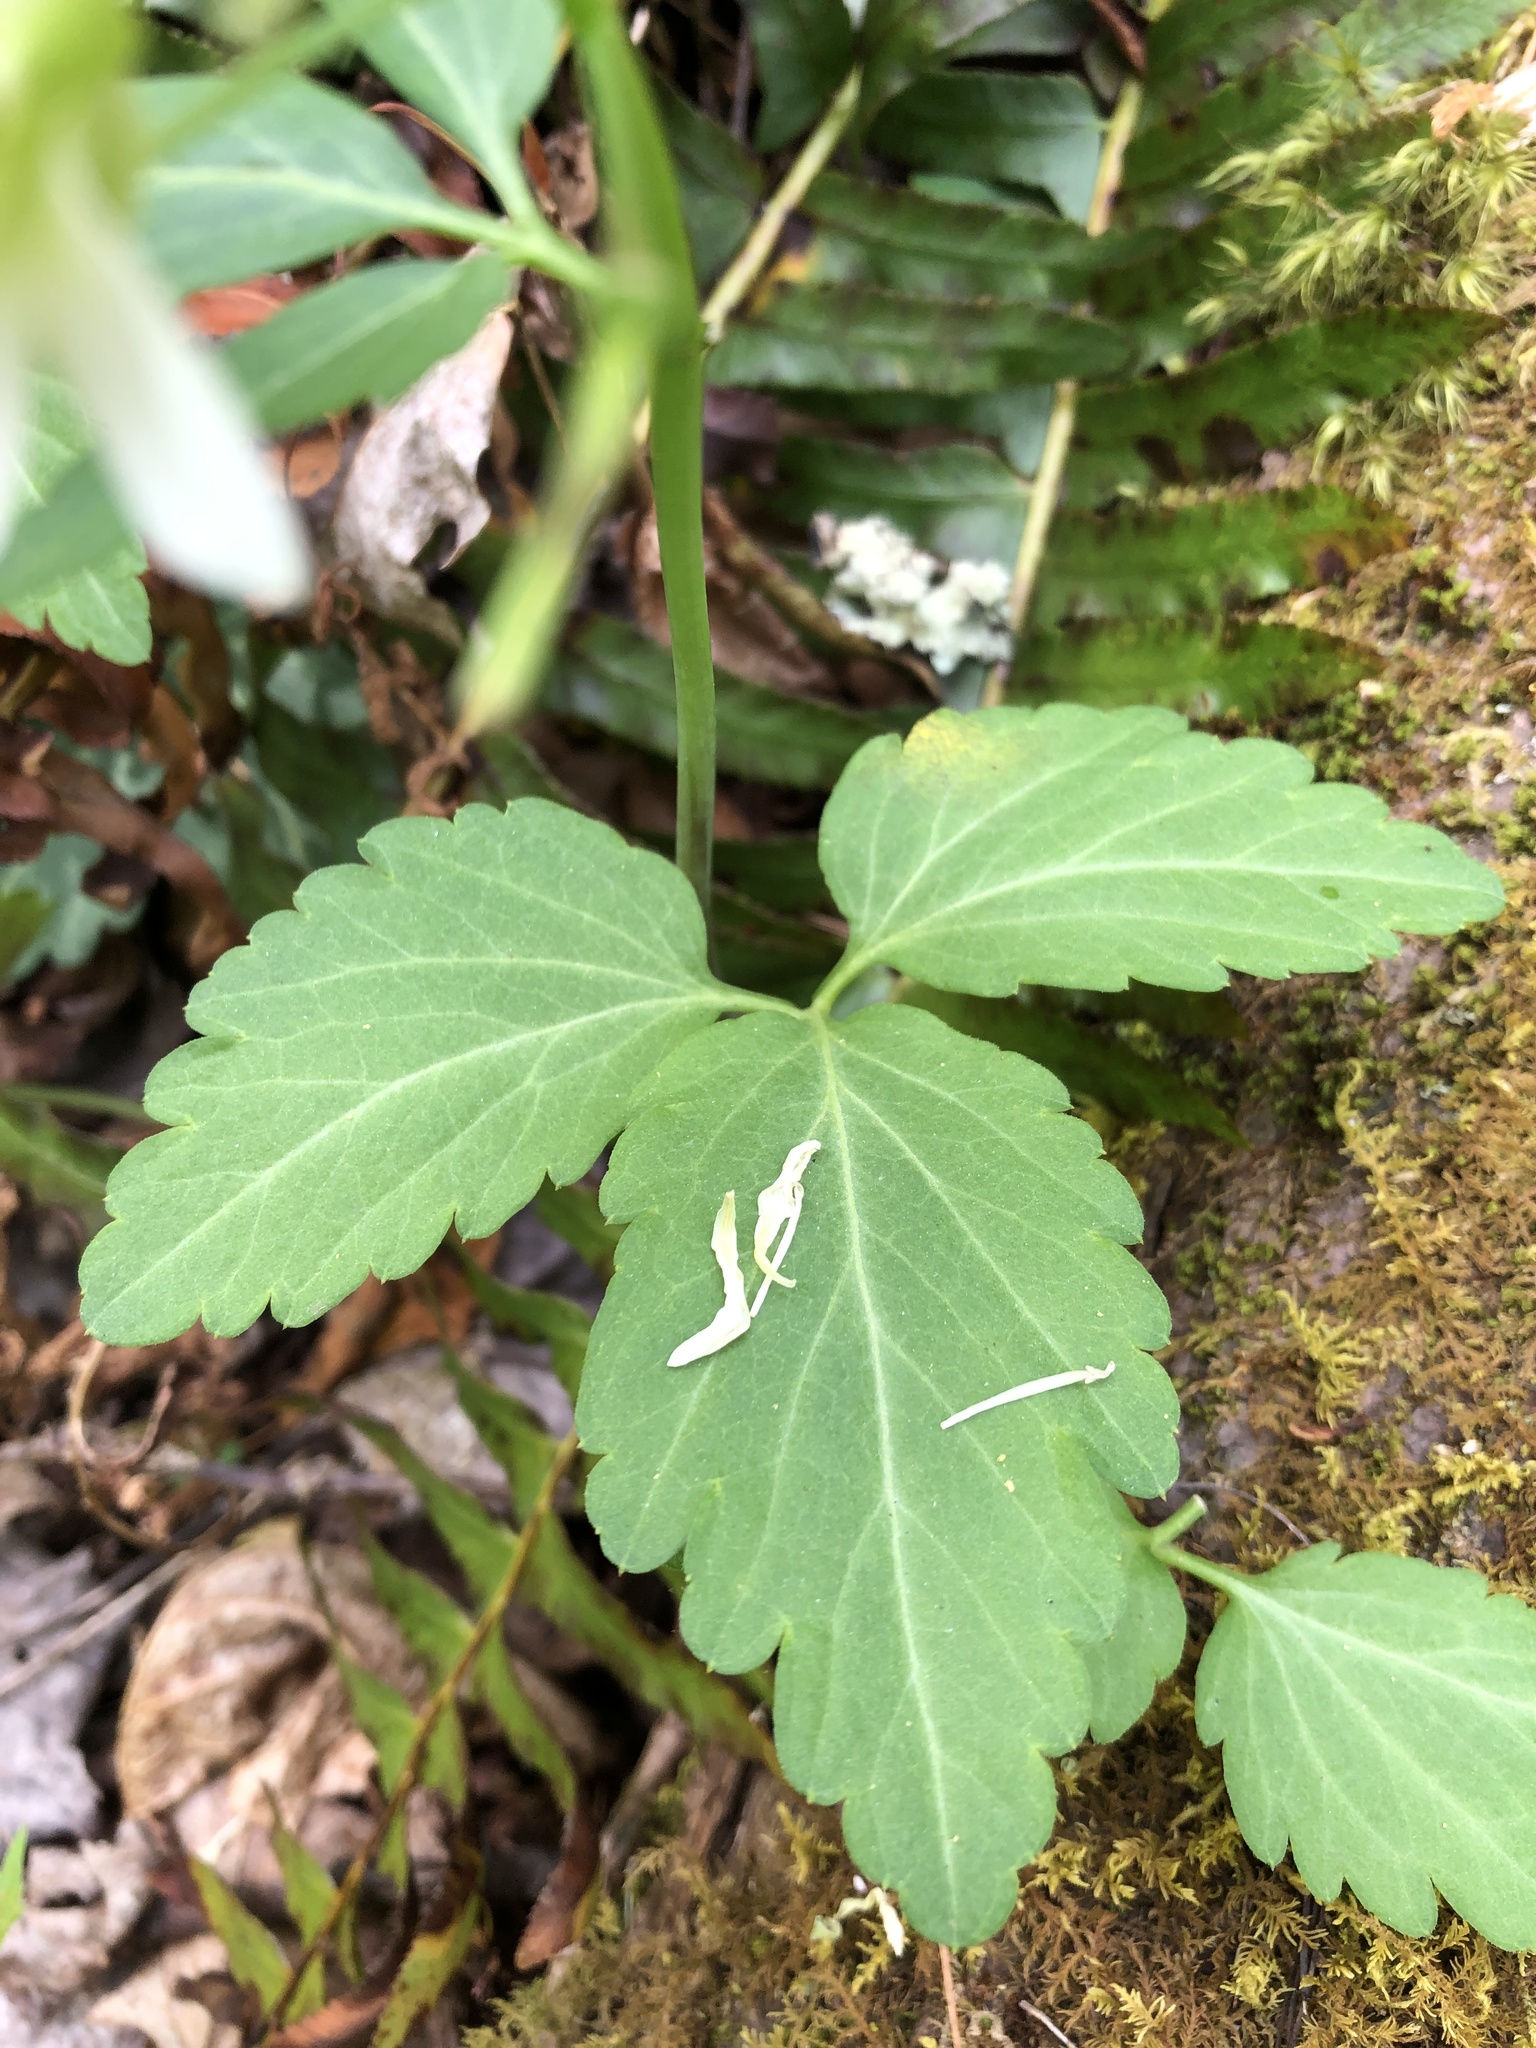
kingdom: Plantae
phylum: Tracheophyta
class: Magnoliopsida
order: Brassicales
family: Brassicaceae
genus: Cardamine
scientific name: Cardamine diphylla
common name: Broad-leaved toothwort
